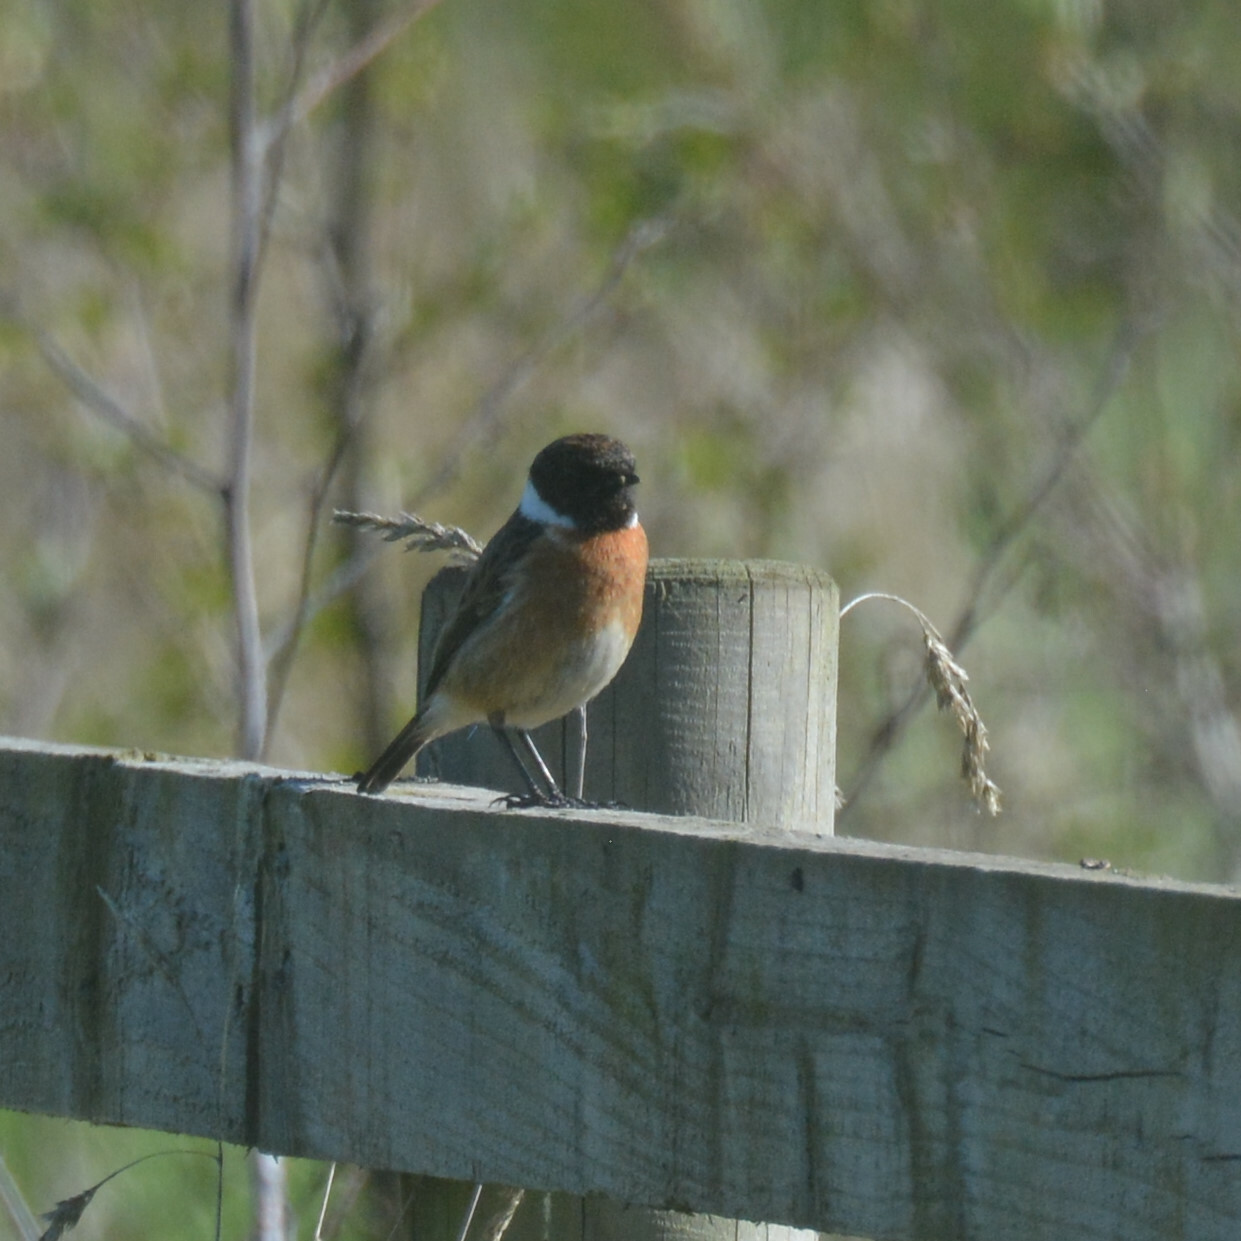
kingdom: Animalia
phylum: Chordata
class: Aves
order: Passeriformes
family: Muscicapidae
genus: Saxicola
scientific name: Saxicola rubicola
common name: European stonechat
